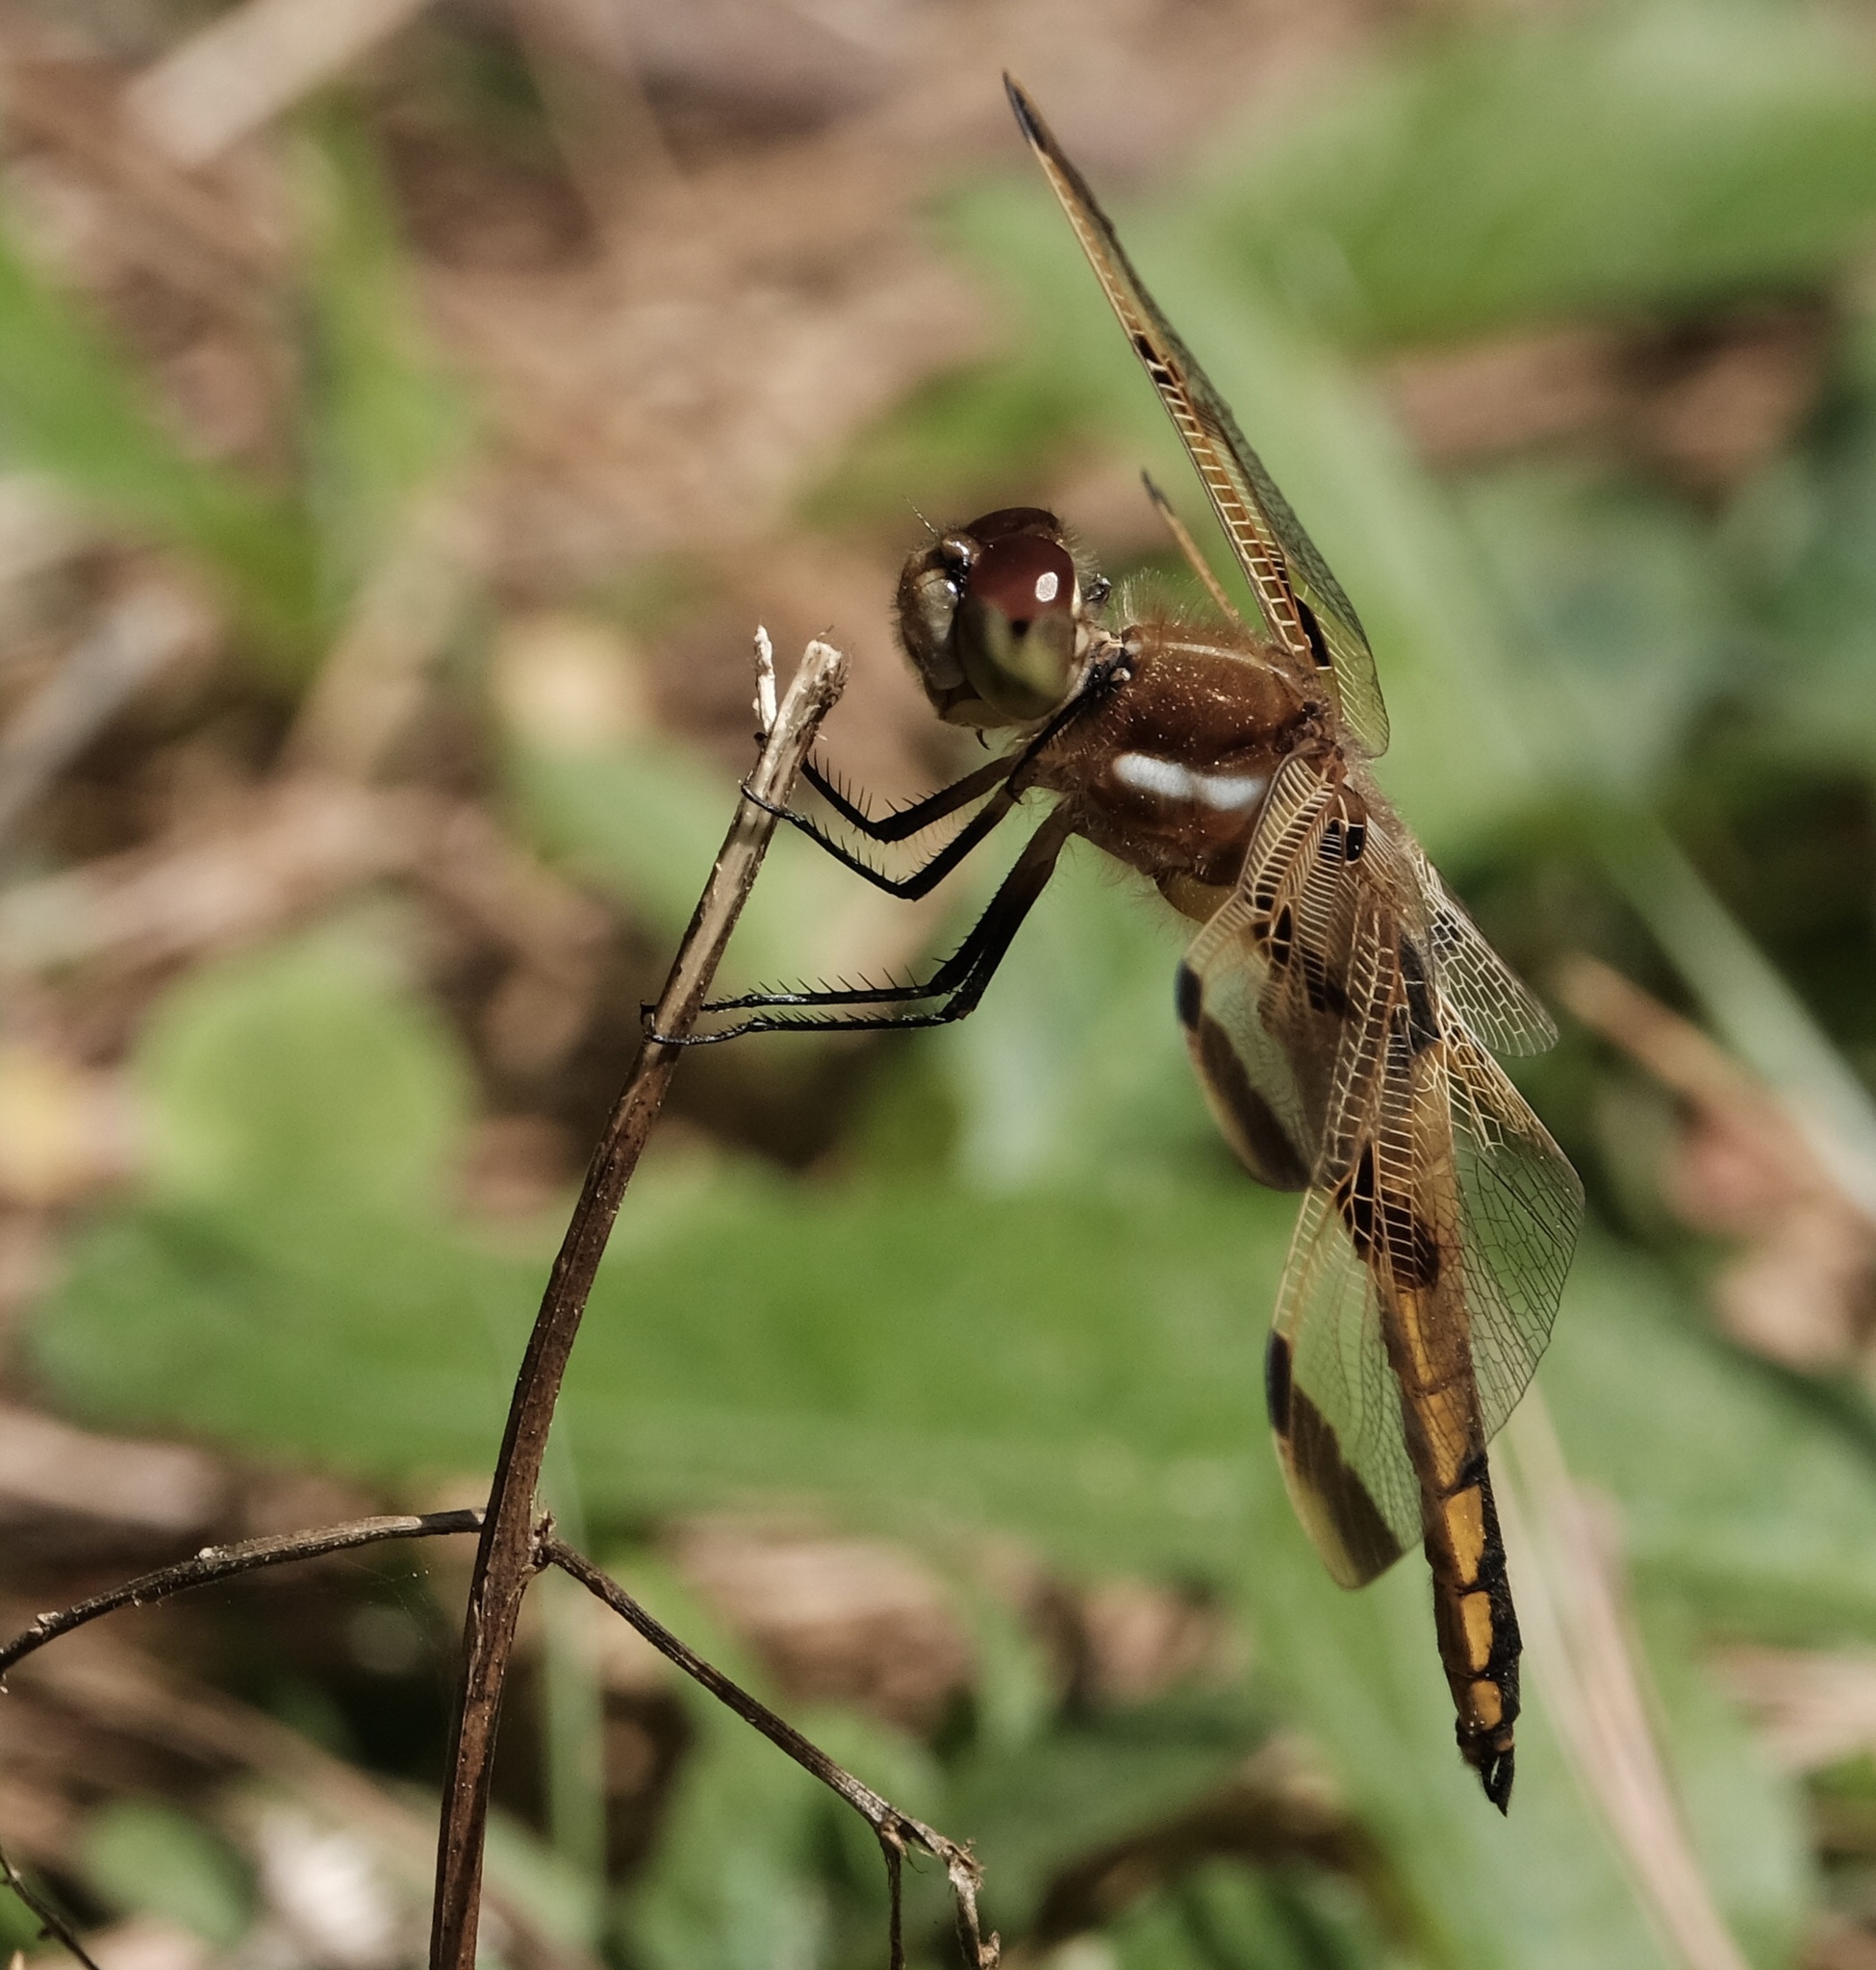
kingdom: Animalia
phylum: Arthropoda
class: Insecta
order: Odonata
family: Libellulidae
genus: Libellula
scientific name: Libellula semifasciata
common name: Painted skimmer
